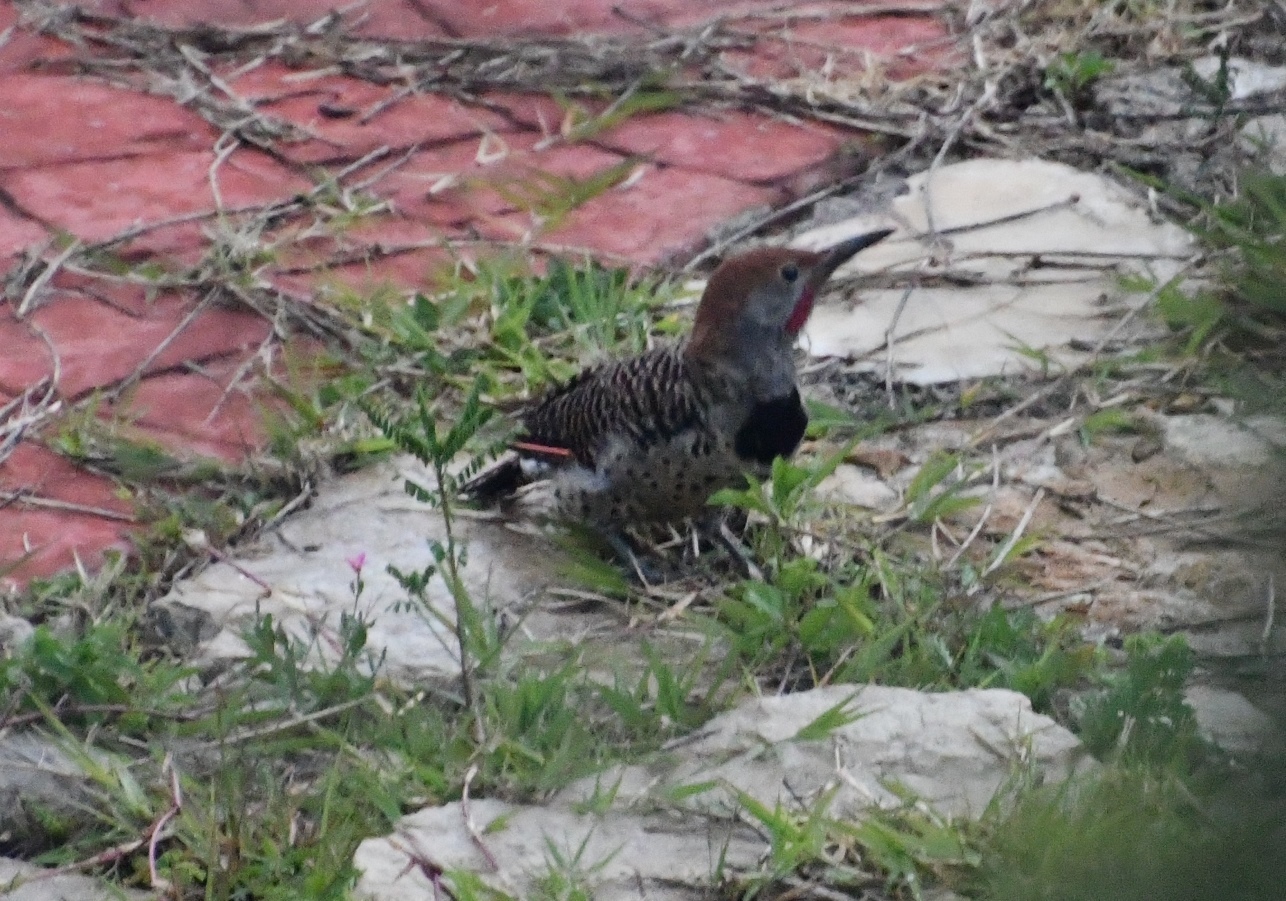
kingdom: Animalia
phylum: Chordata
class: Aves
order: Piciformes
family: Picidae
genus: Colaptes
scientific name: Colaptes auratus
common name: Northern flicker
